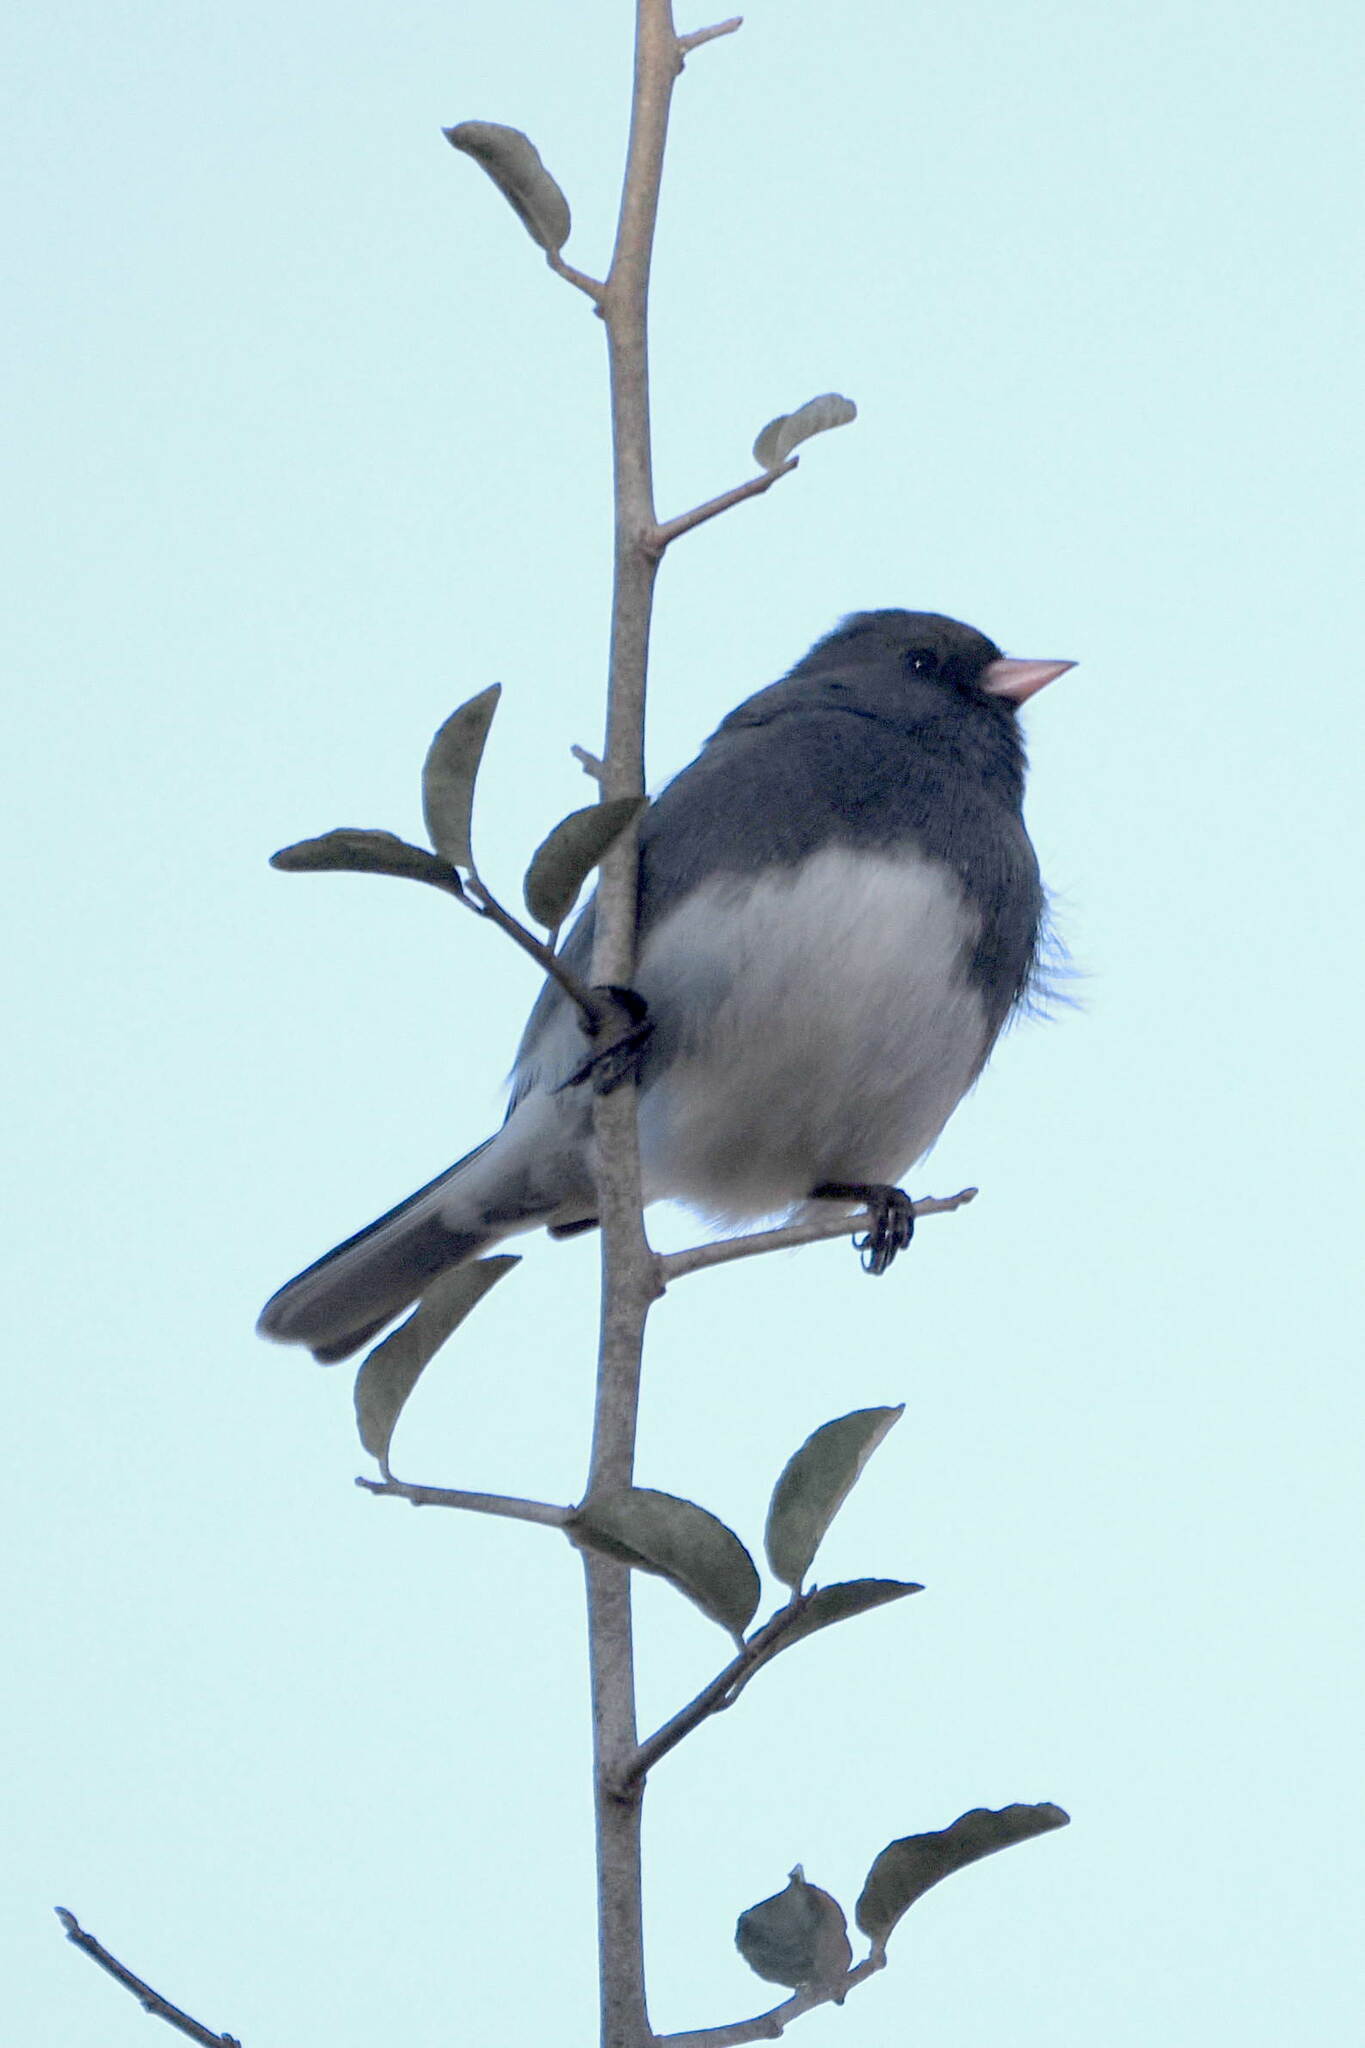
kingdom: Animalia
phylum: Chordata
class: Aves
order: Passeriformes
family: Passerellidae
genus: Junco
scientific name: Junco hyemalis
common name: Dark-eyed junco
